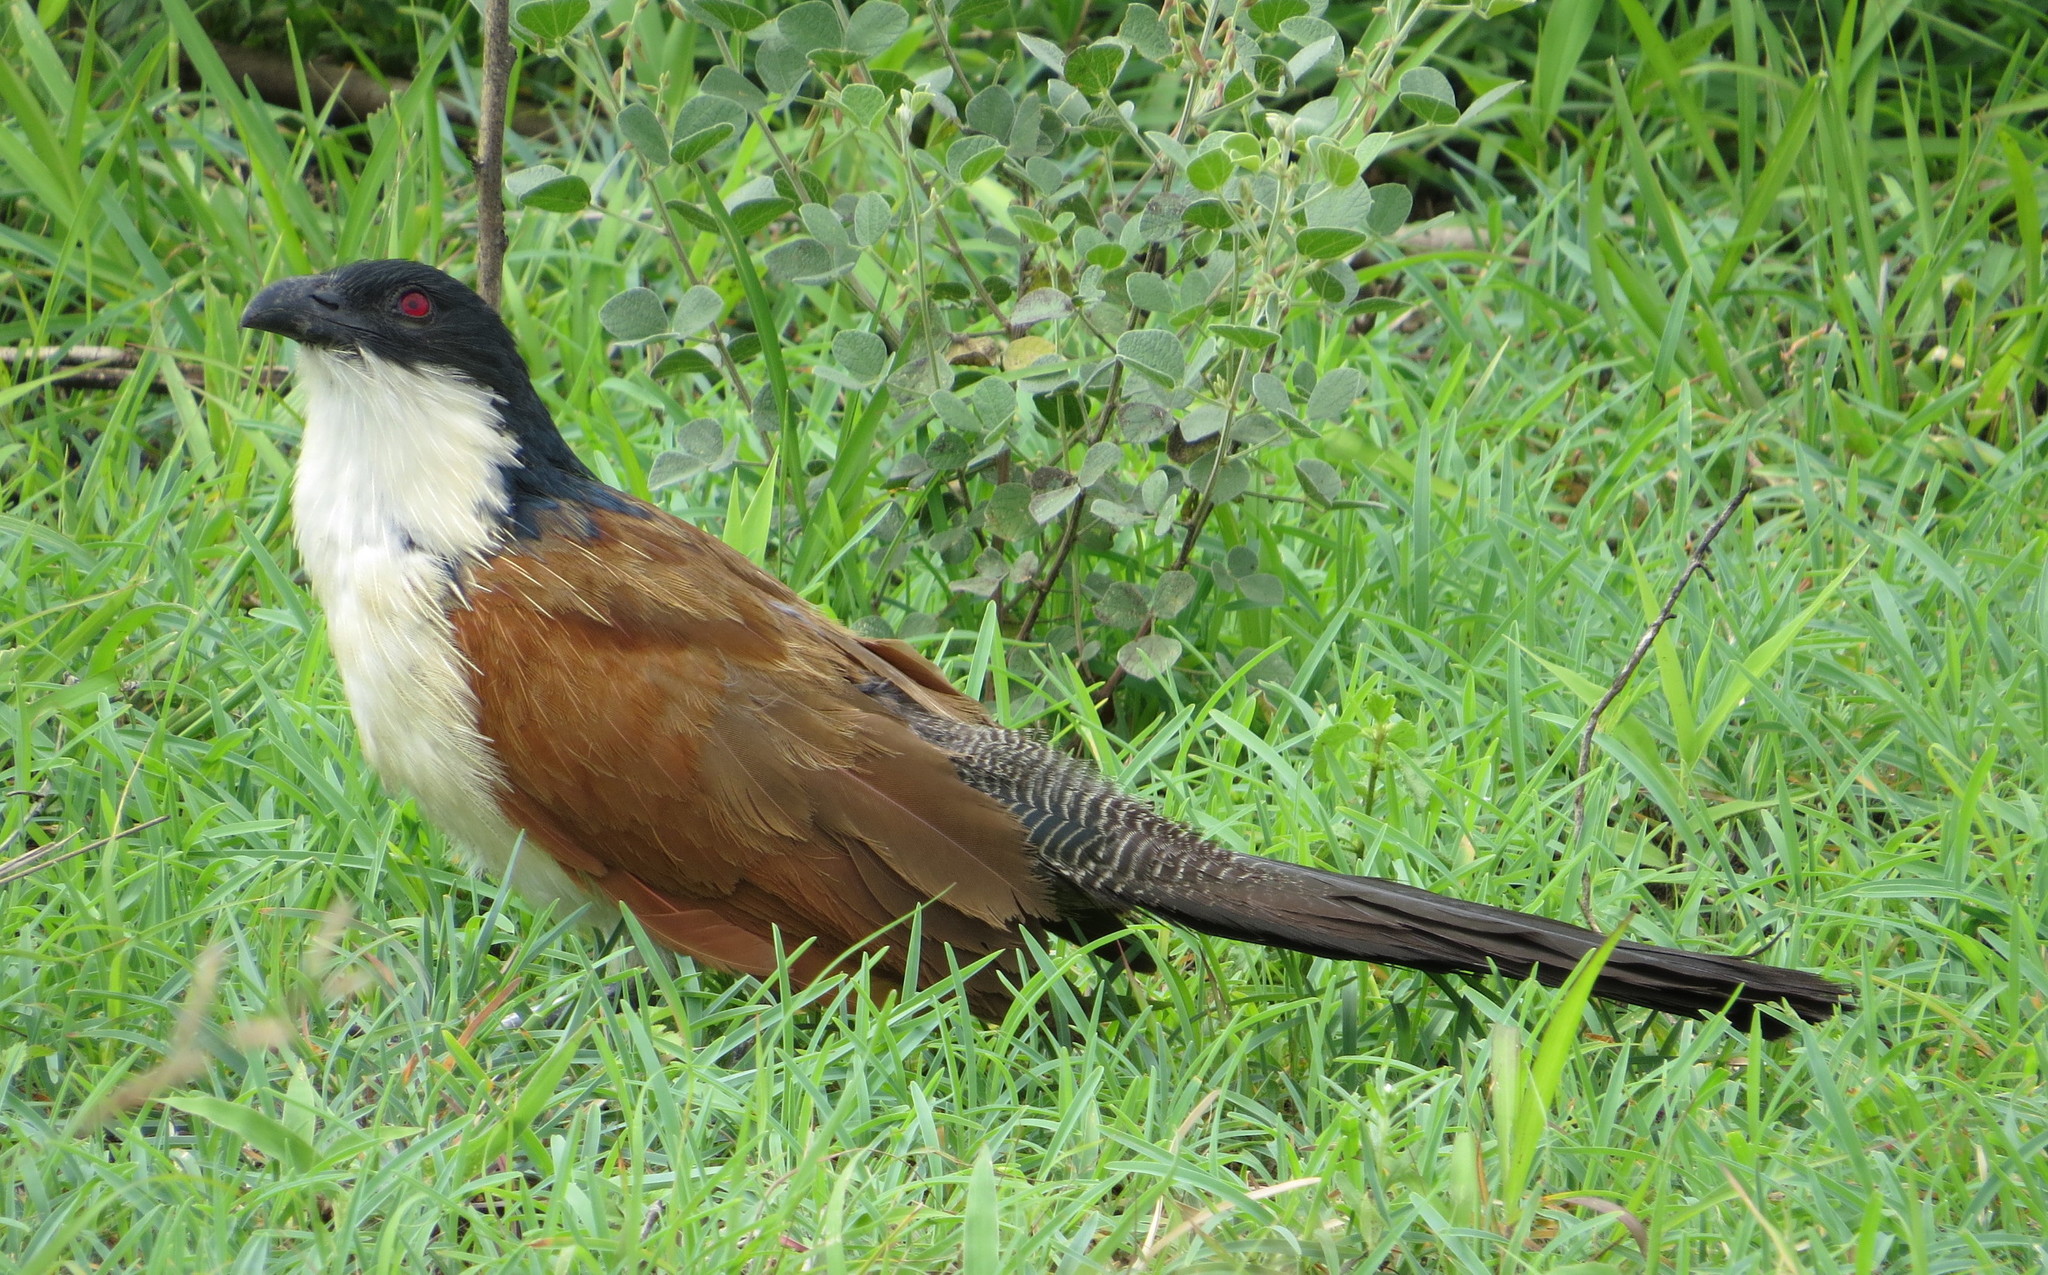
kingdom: Animalia
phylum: Chordata
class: Aves
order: Cuculiformes
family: Cuculidae
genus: Centropus
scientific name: Centropus superciliosus
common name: White-browed coucal
